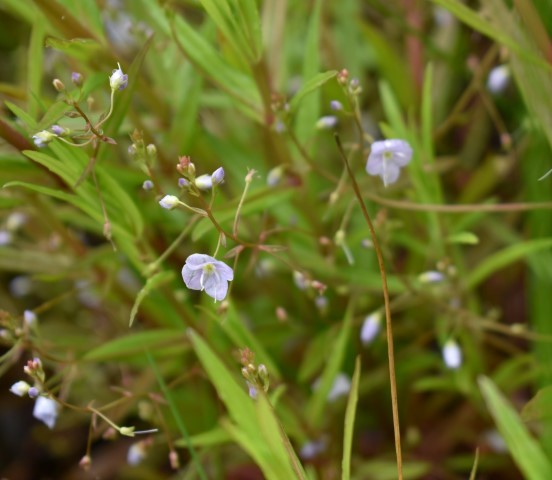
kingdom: Plantae
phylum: Tracheophyta
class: Magnoliopsida
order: Lamiales
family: Plantaginaceae
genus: Veronica
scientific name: Veronica scutellata
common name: Marsh speedwell
